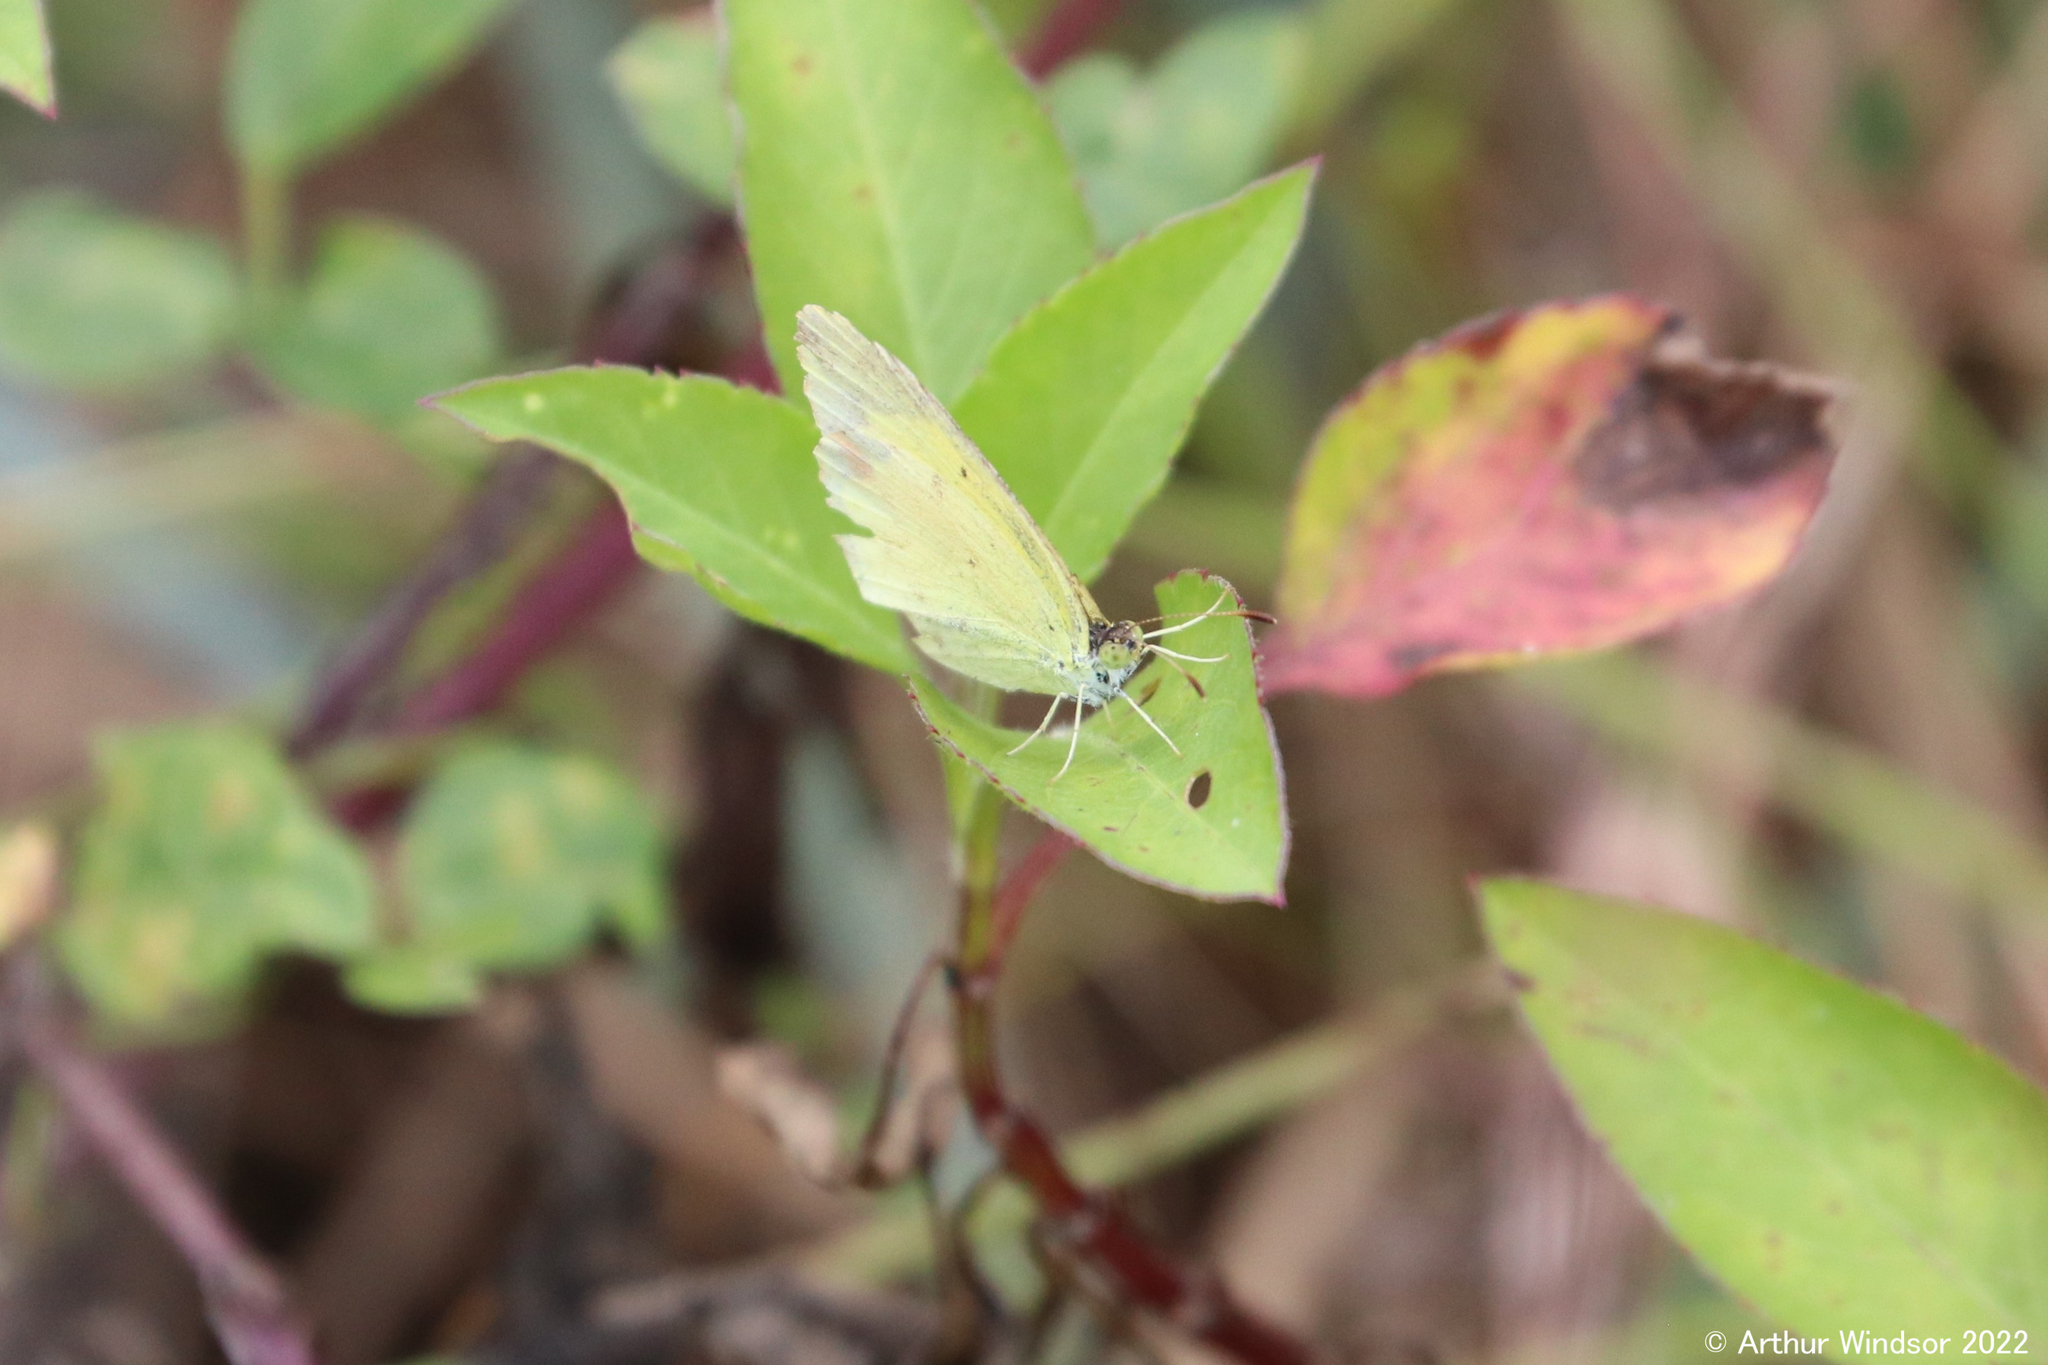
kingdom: Animalia
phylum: Arthropoda
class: Insecta
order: Lepidoptera
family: Pieridae
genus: Eurema
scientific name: Eurema daira
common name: Barred sulphur
